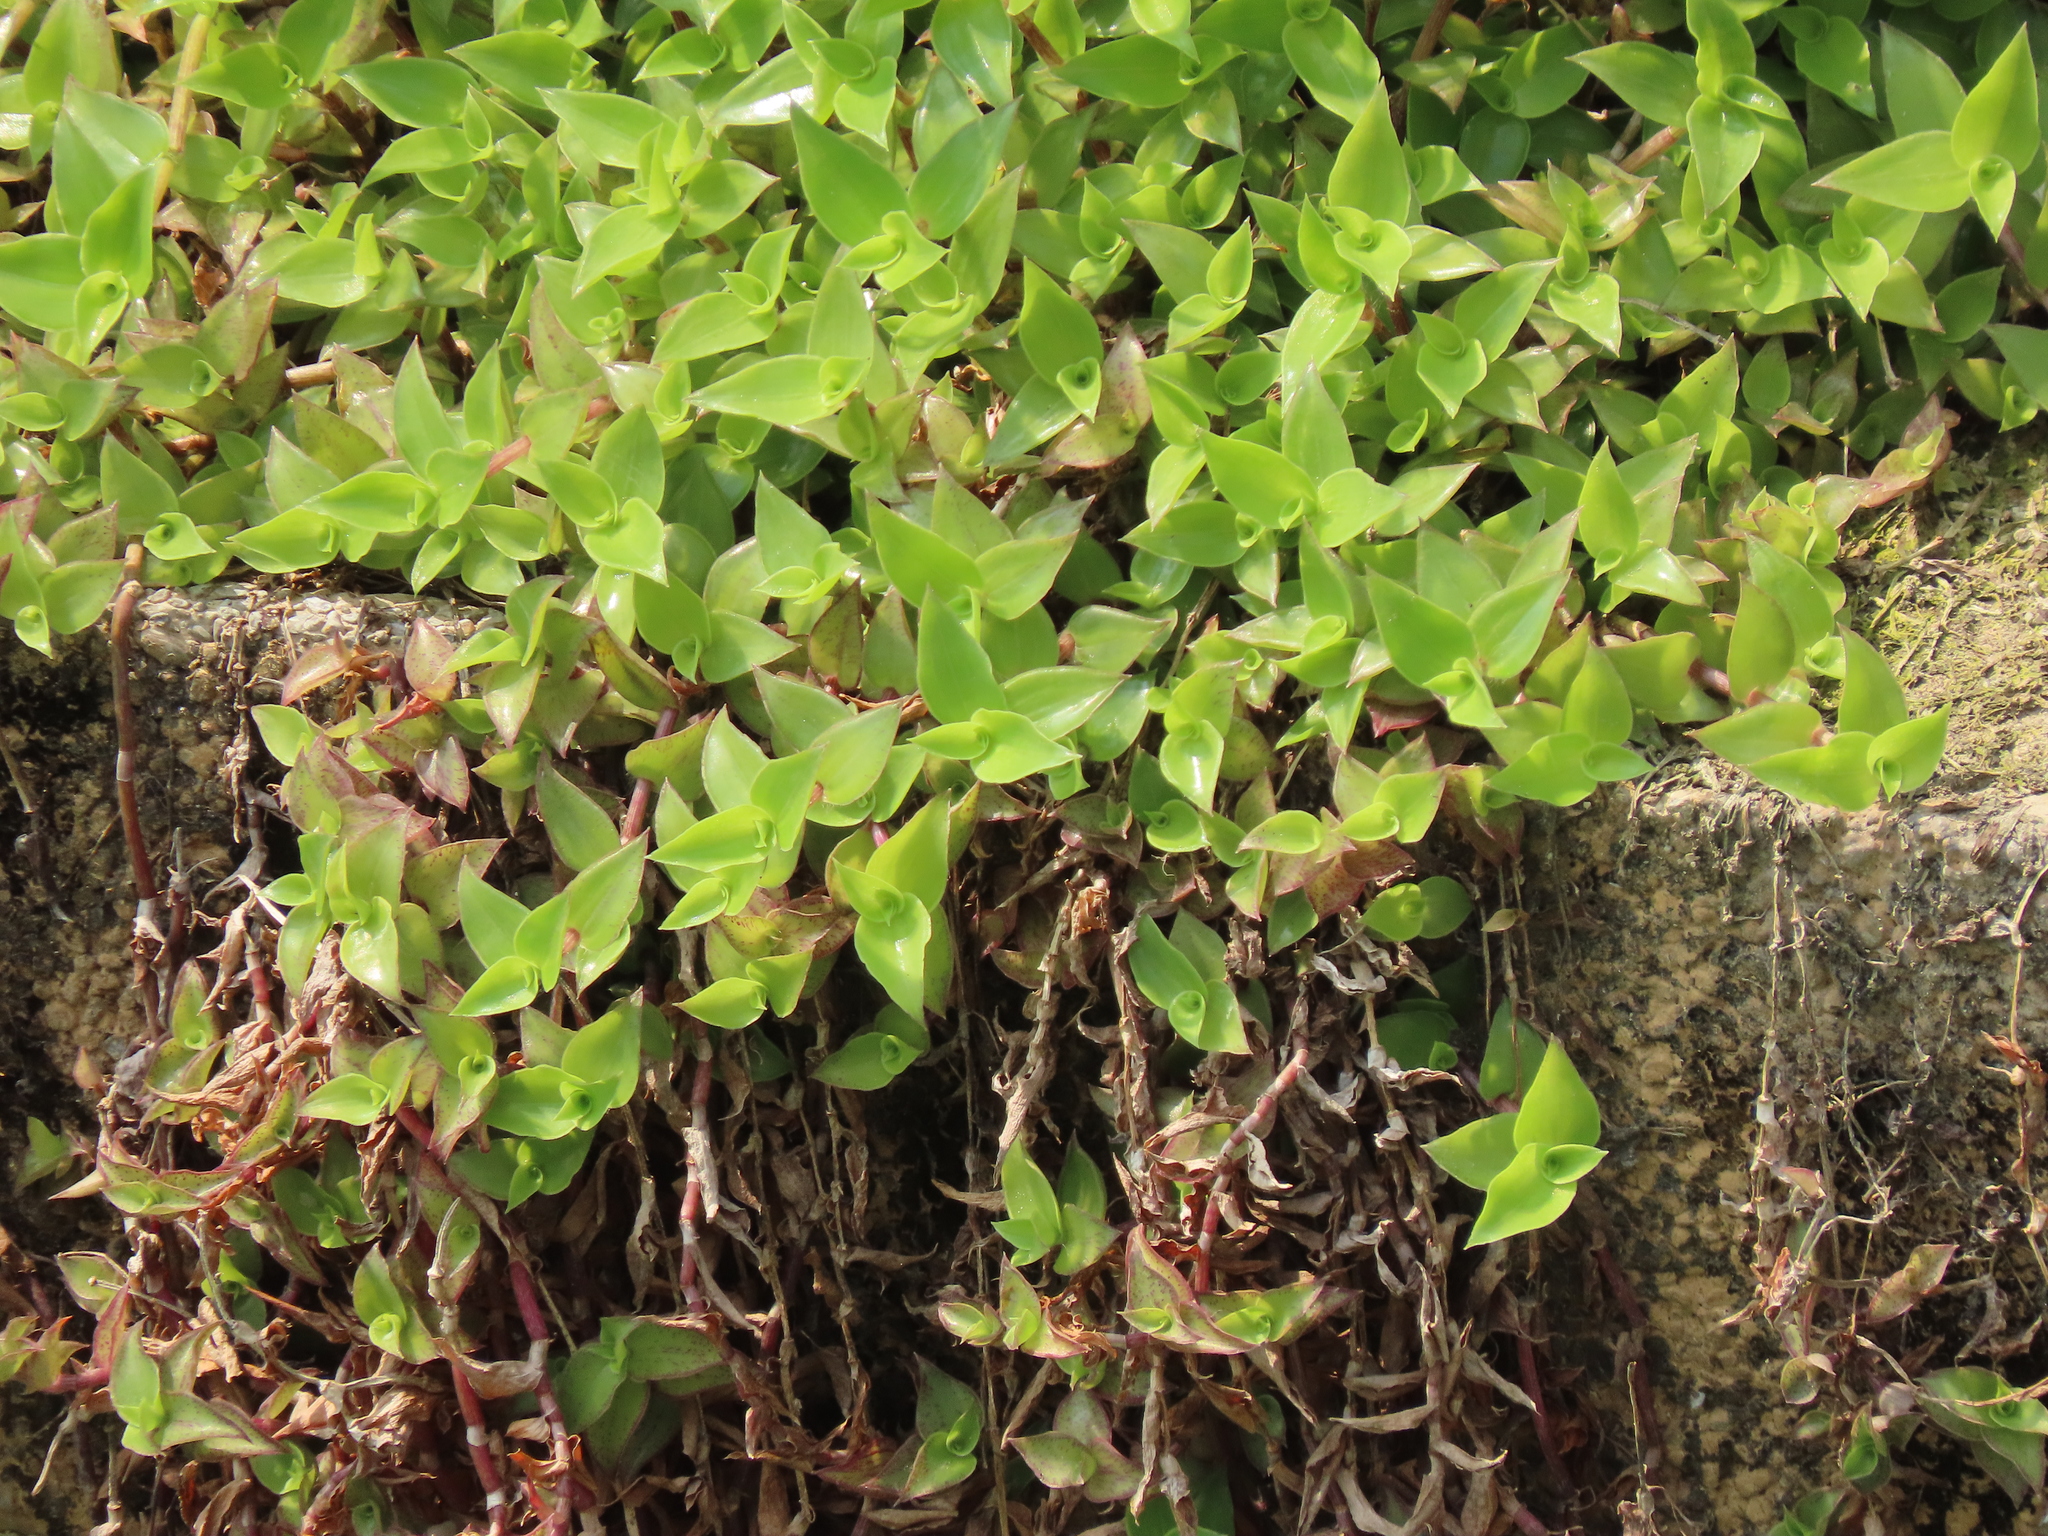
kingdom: Plantae
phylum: Tracheophyta
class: Liliopsida
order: Commelinales
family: Commelinaceae
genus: Callisia
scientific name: Callisia repens
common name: Creeping inchplant
